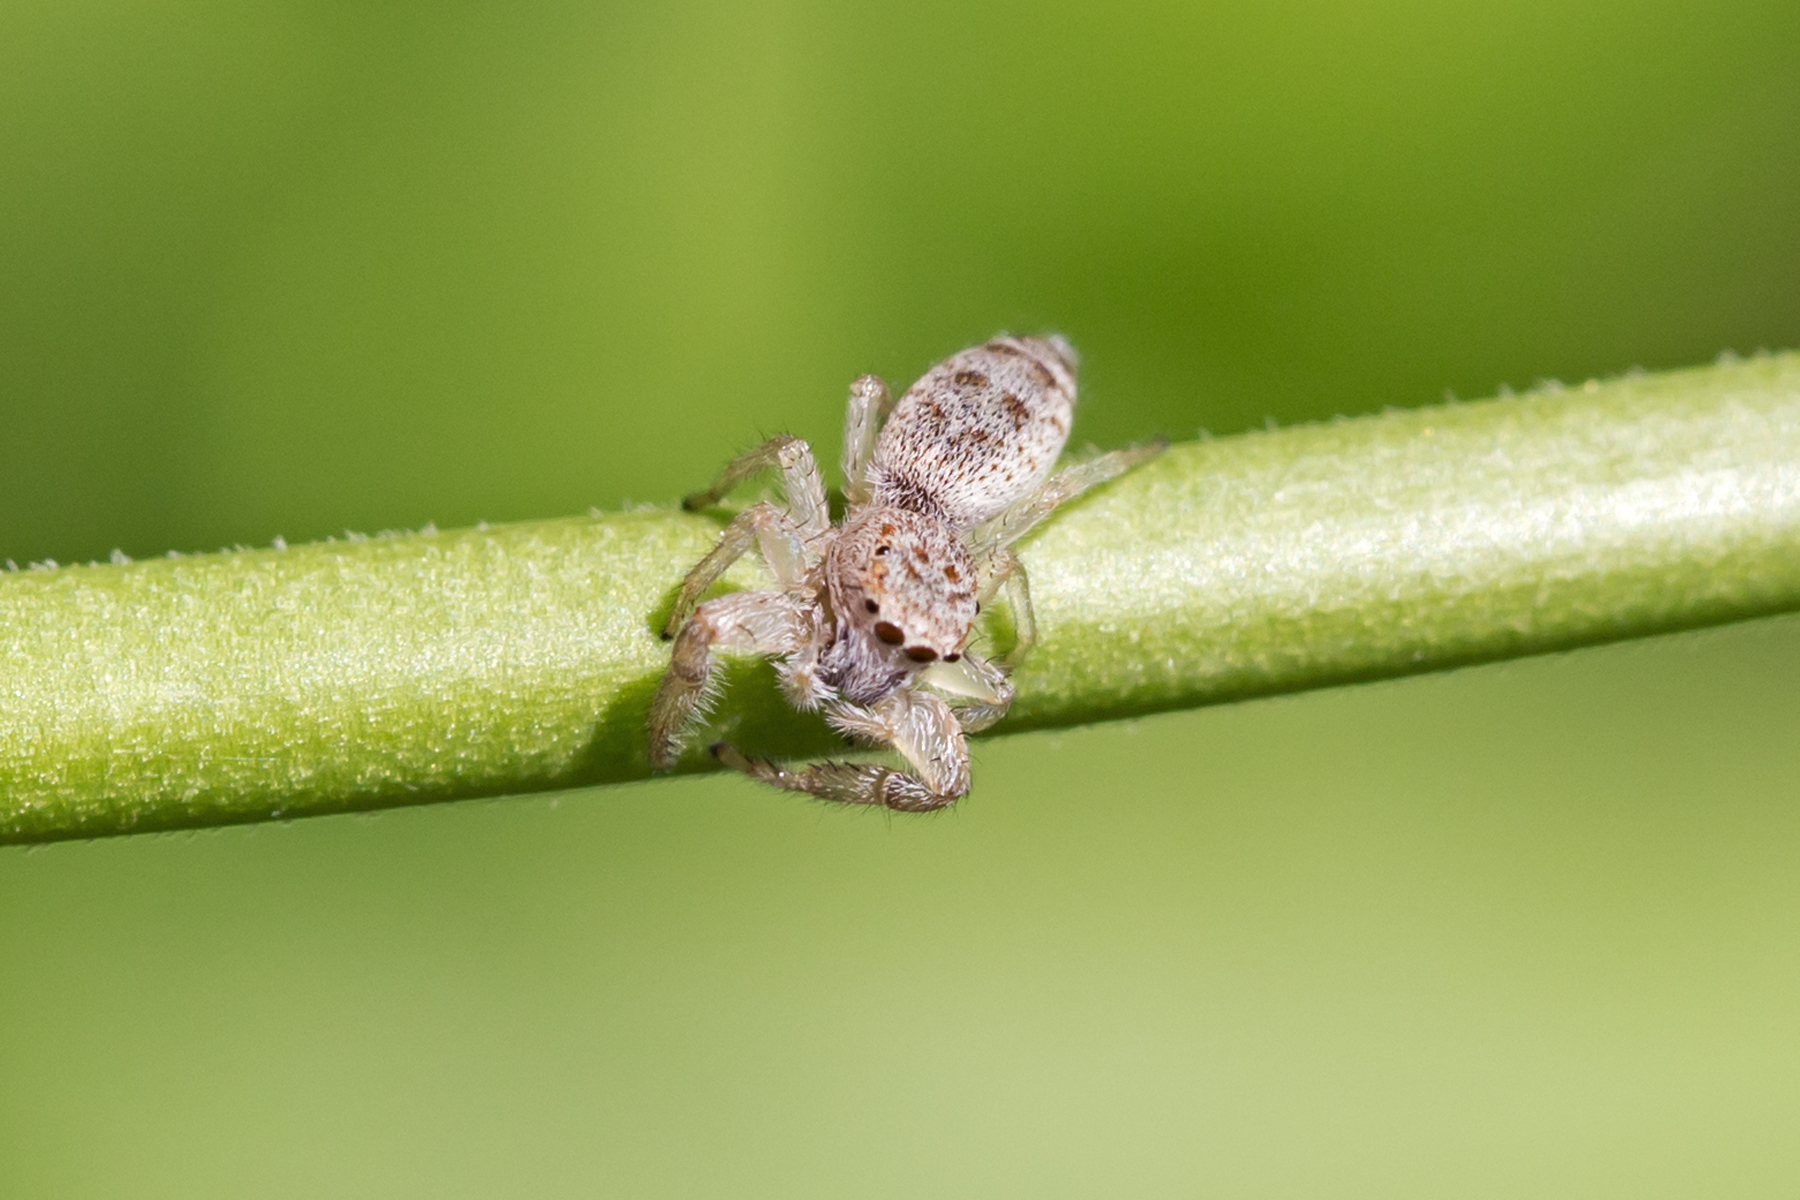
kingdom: Animalia
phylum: Arthropoda
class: Arachnida
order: Araneae
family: Salticidae
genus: Hentzia
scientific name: Hentzia mitrata
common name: White-jawed jumping spider
